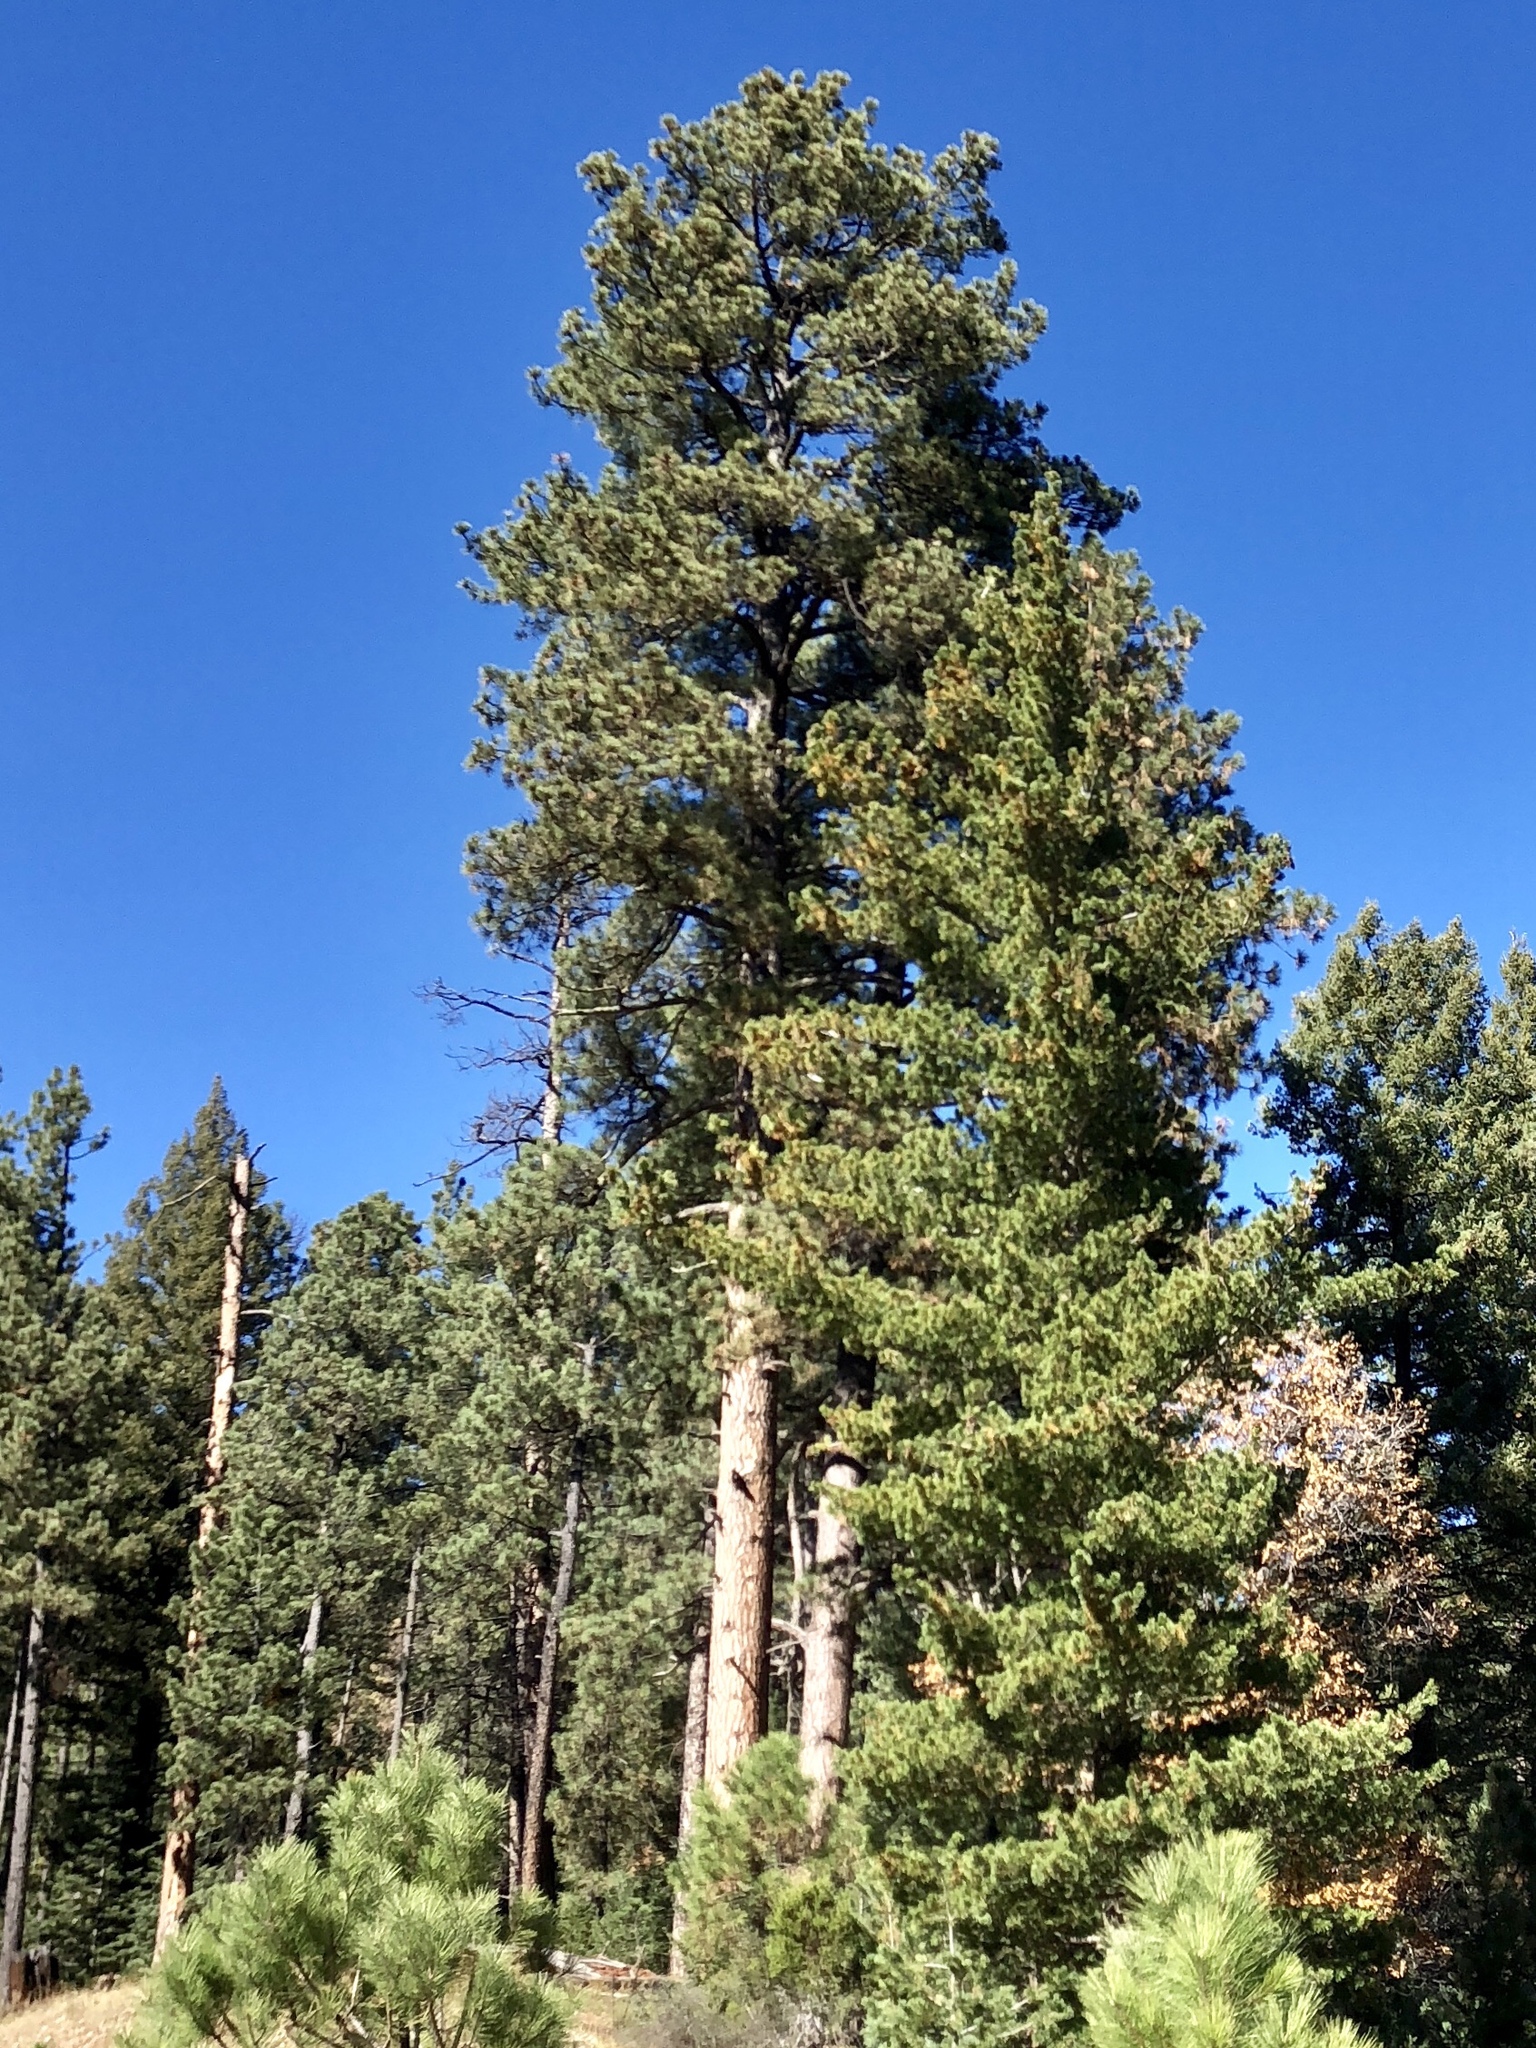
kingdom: Plantae
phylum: Tracheophyta
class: Pinopsida
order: Pinales
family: Pinaceae
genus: Pinus
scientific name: Pinus ponderosa
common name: Western yellow-pine
